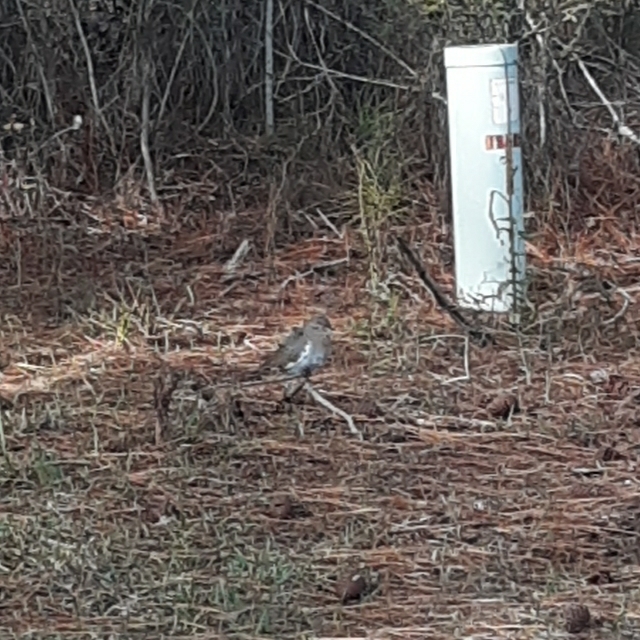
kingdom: Animalia
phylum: Chordata
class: Aves
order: Columbiformes
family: Columbidae
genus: Zenaida
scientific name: Zenaida asiatica
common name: White-winged dove
